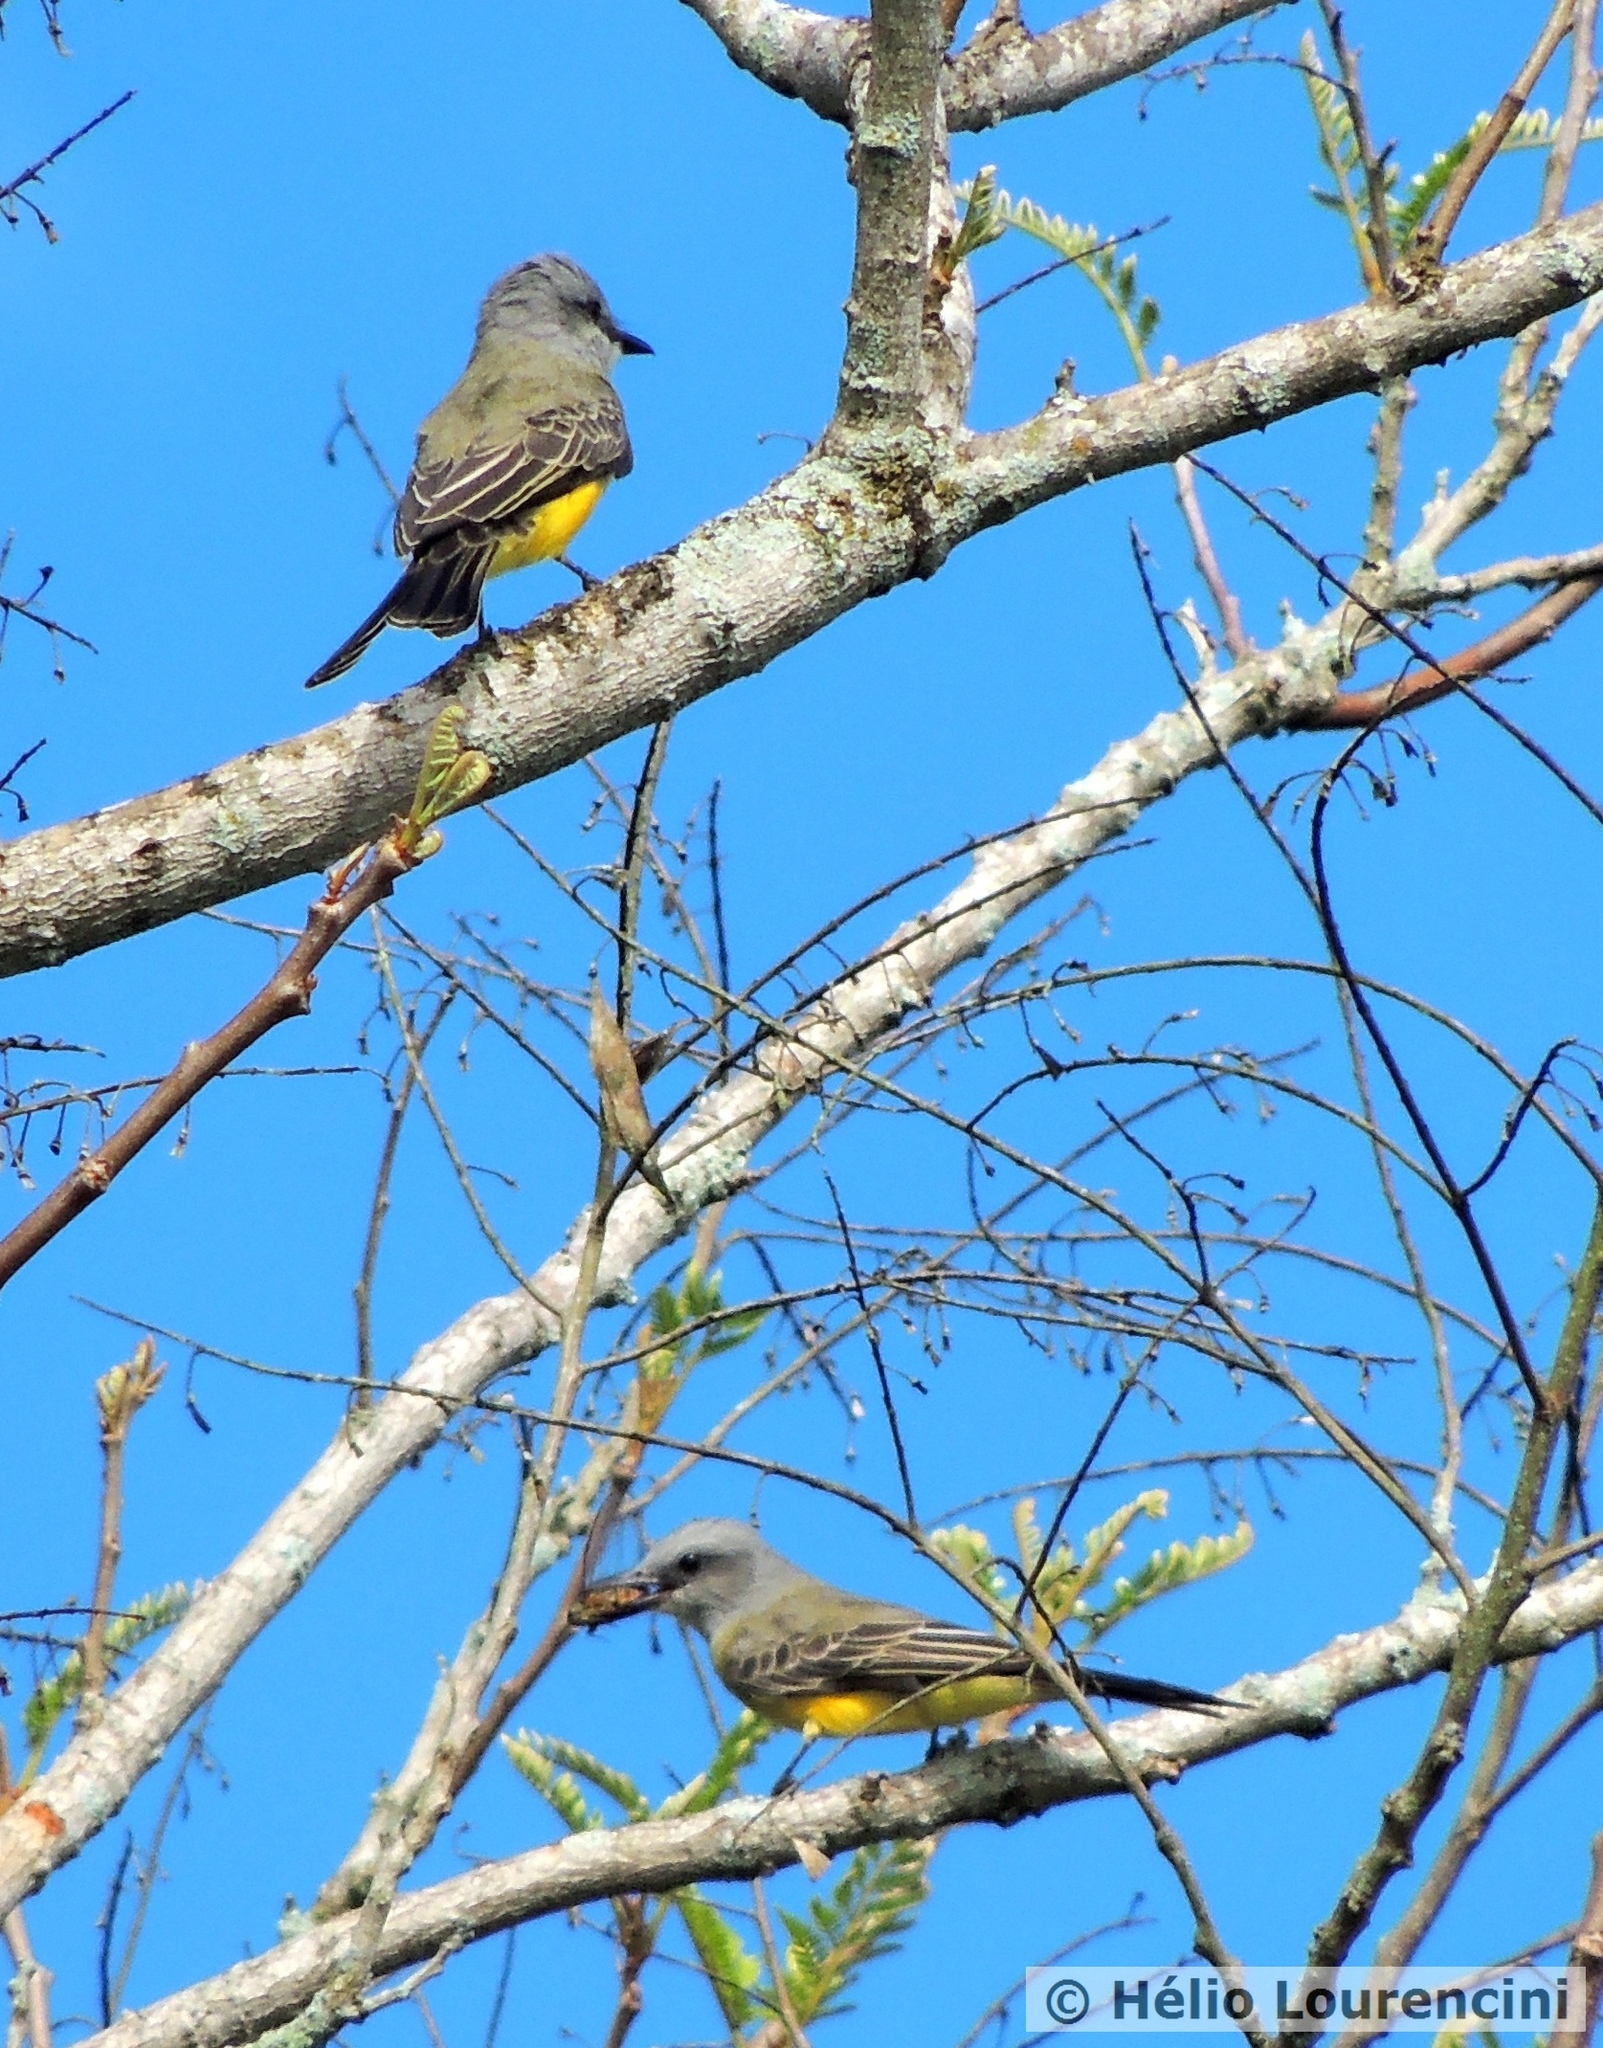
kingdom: Animalia
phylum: Chordata
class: Aves
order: Passeriformes
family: Tyrannidae
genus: Tyrannus
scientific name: Tyrannus melancholicus
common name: Tropical kingbird
